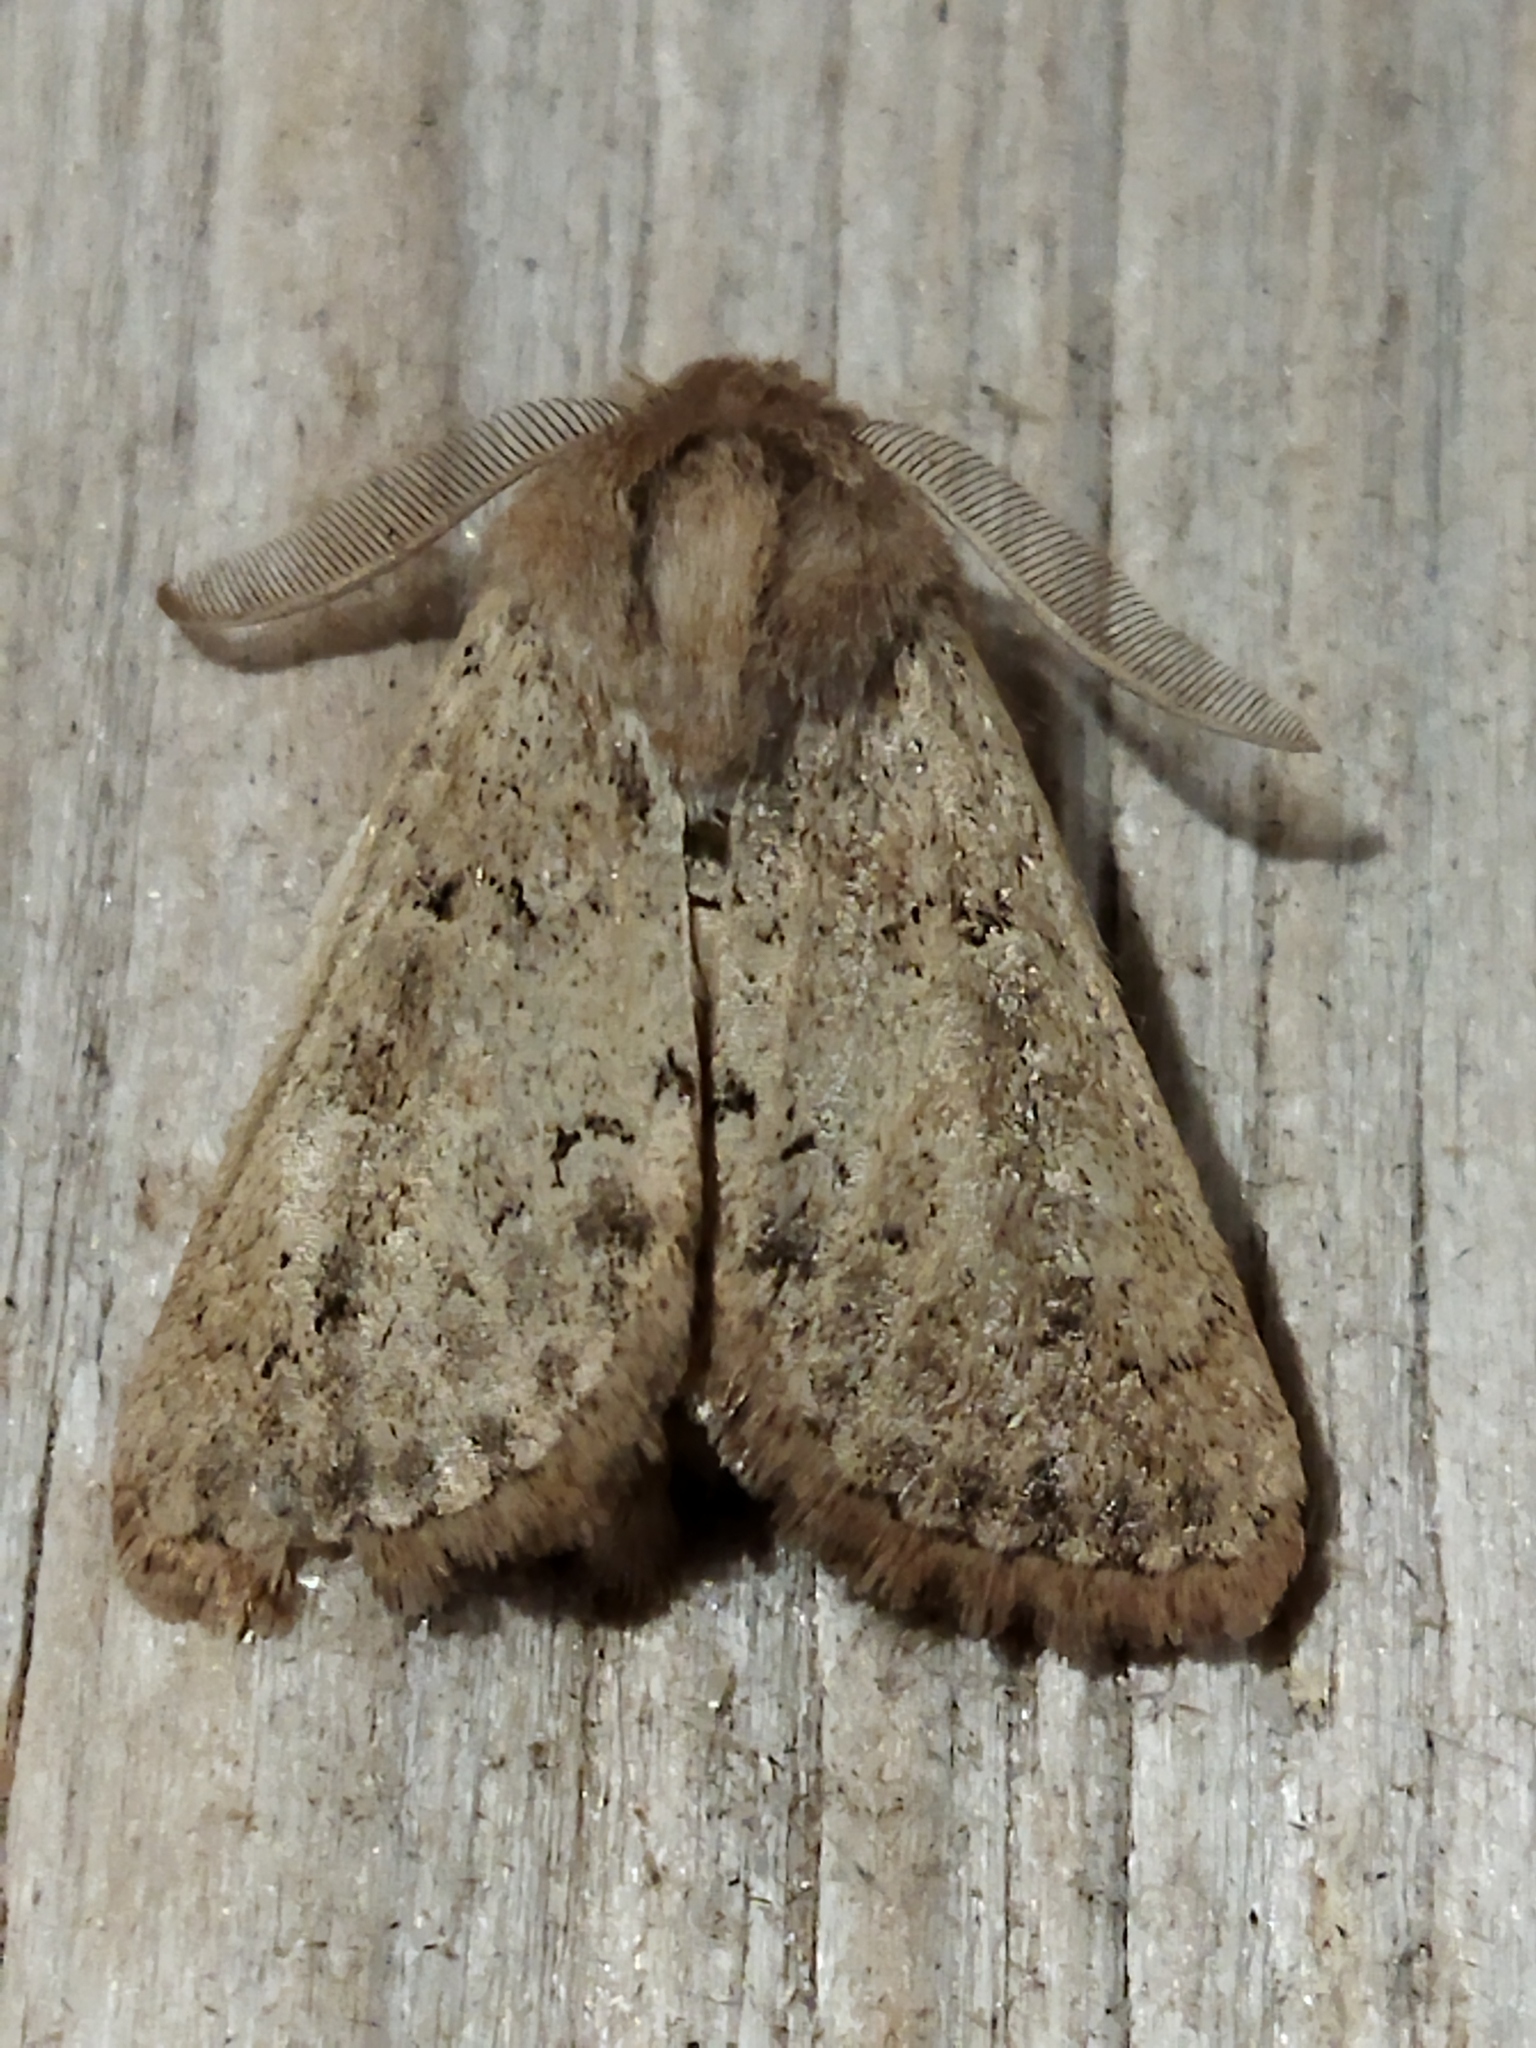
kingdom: Animalia
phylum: Arthropoda
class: Insecta
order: Lepidoptera
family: Noctuidae
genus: Episema
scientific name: Episema lederi
